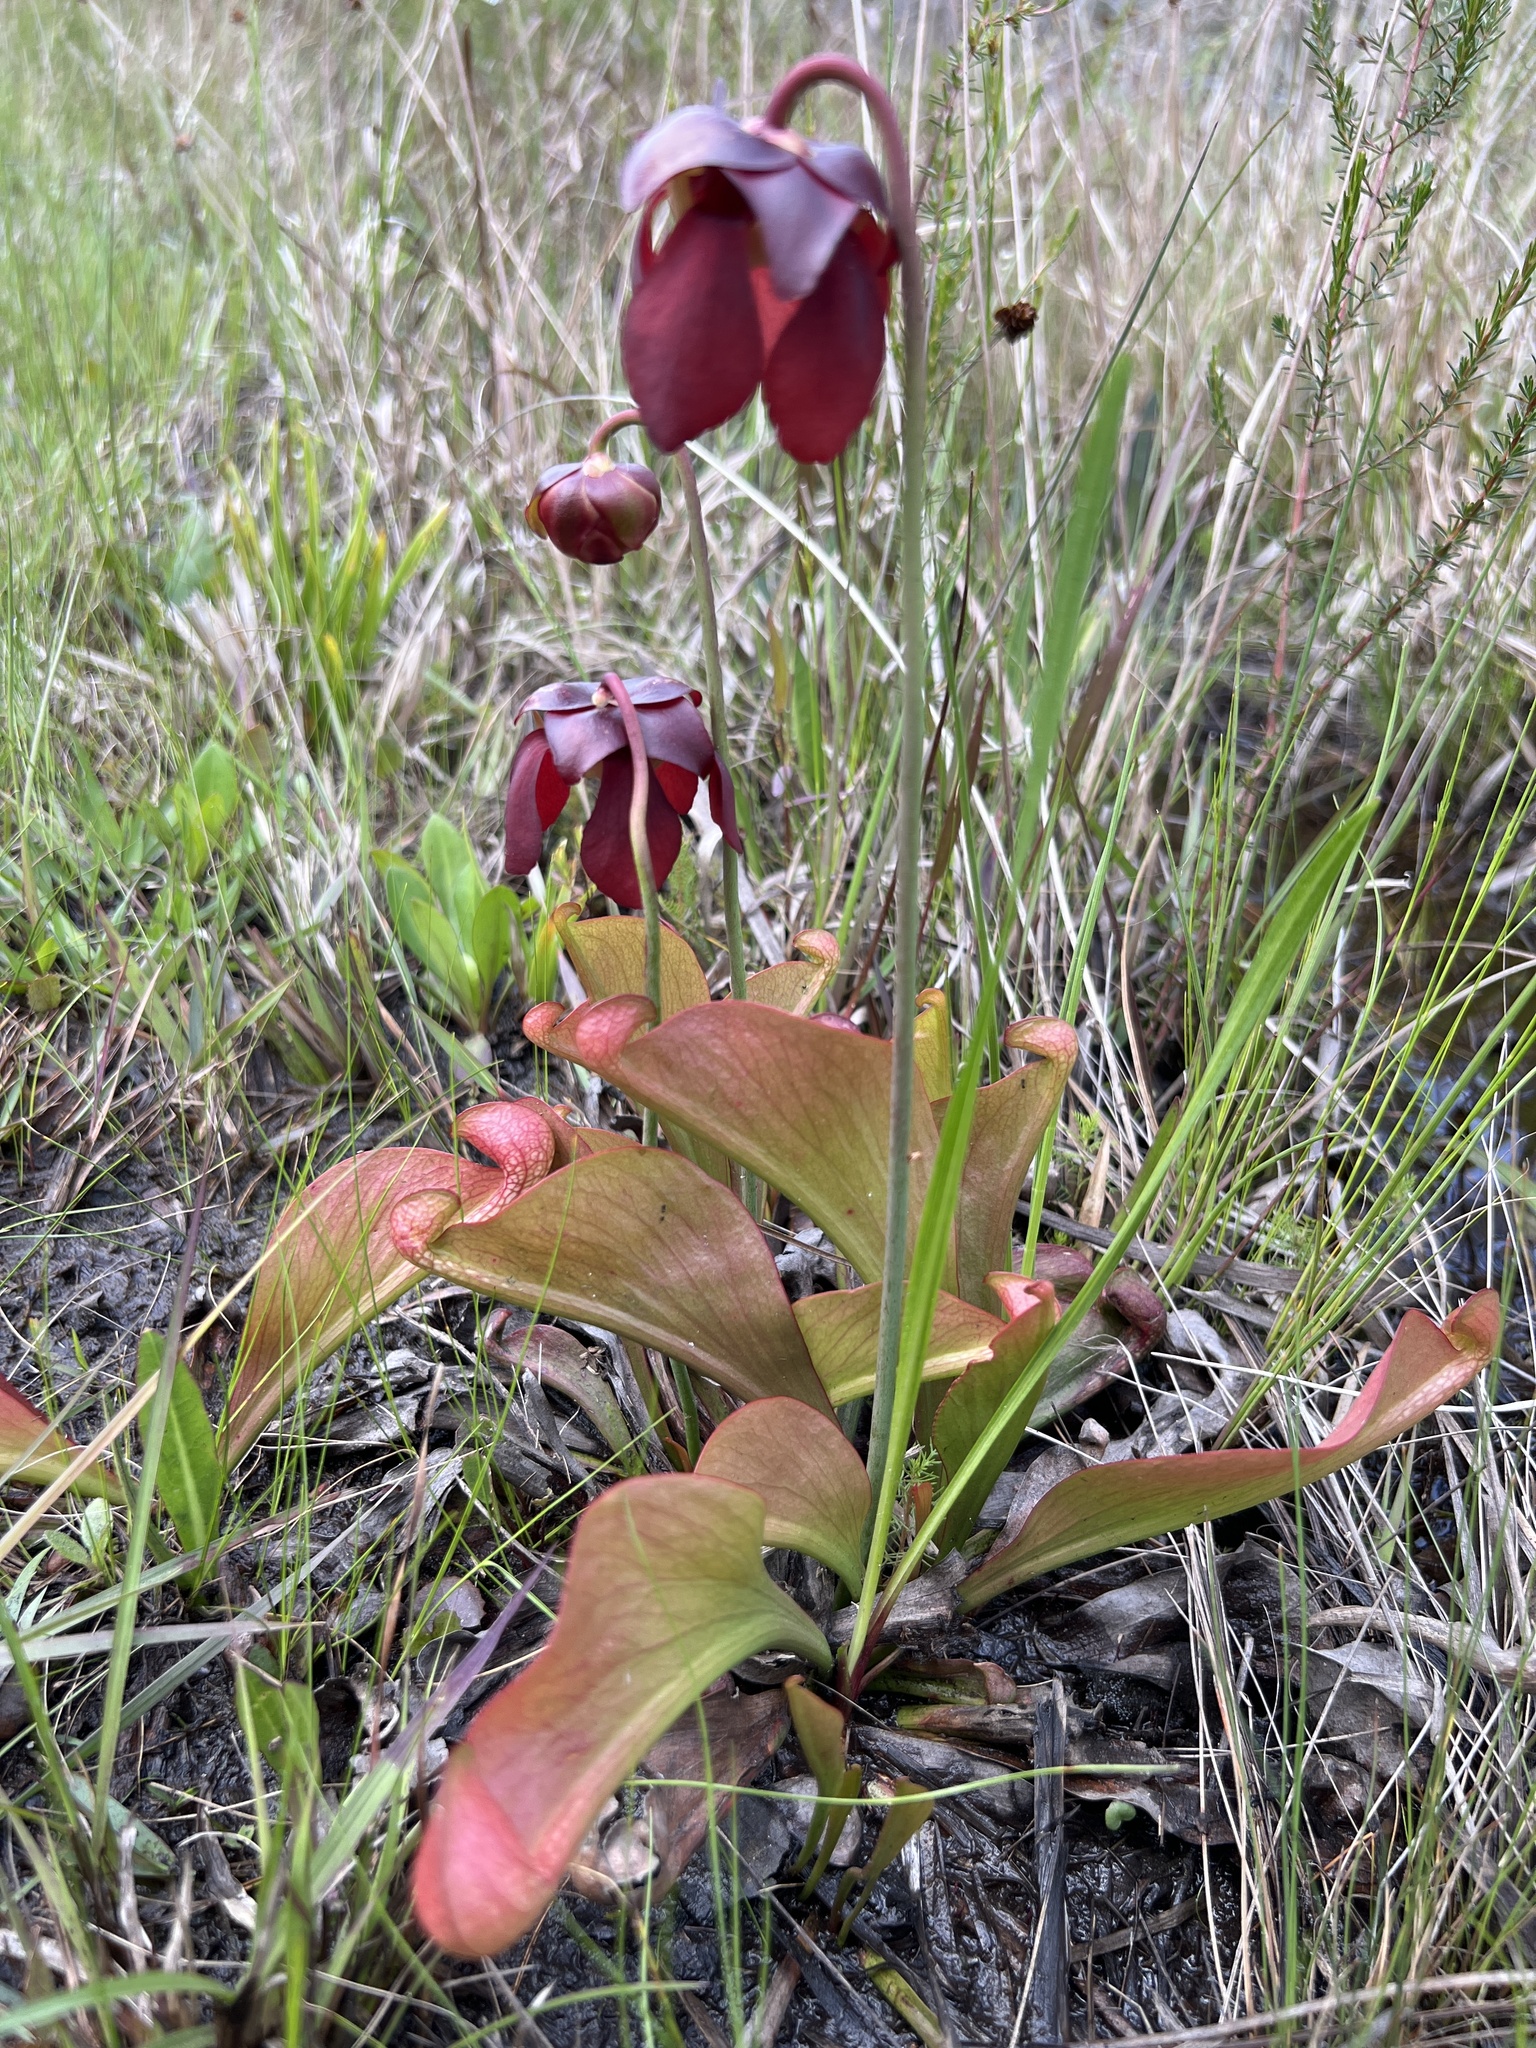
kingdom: Plantae
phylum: Tracheophyta
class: Magnoliopsida
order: Ericales
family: Sarraceniaceae
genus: Sarracenia
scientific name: Sarracenia psittacina
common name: Parrot pitcherplant
